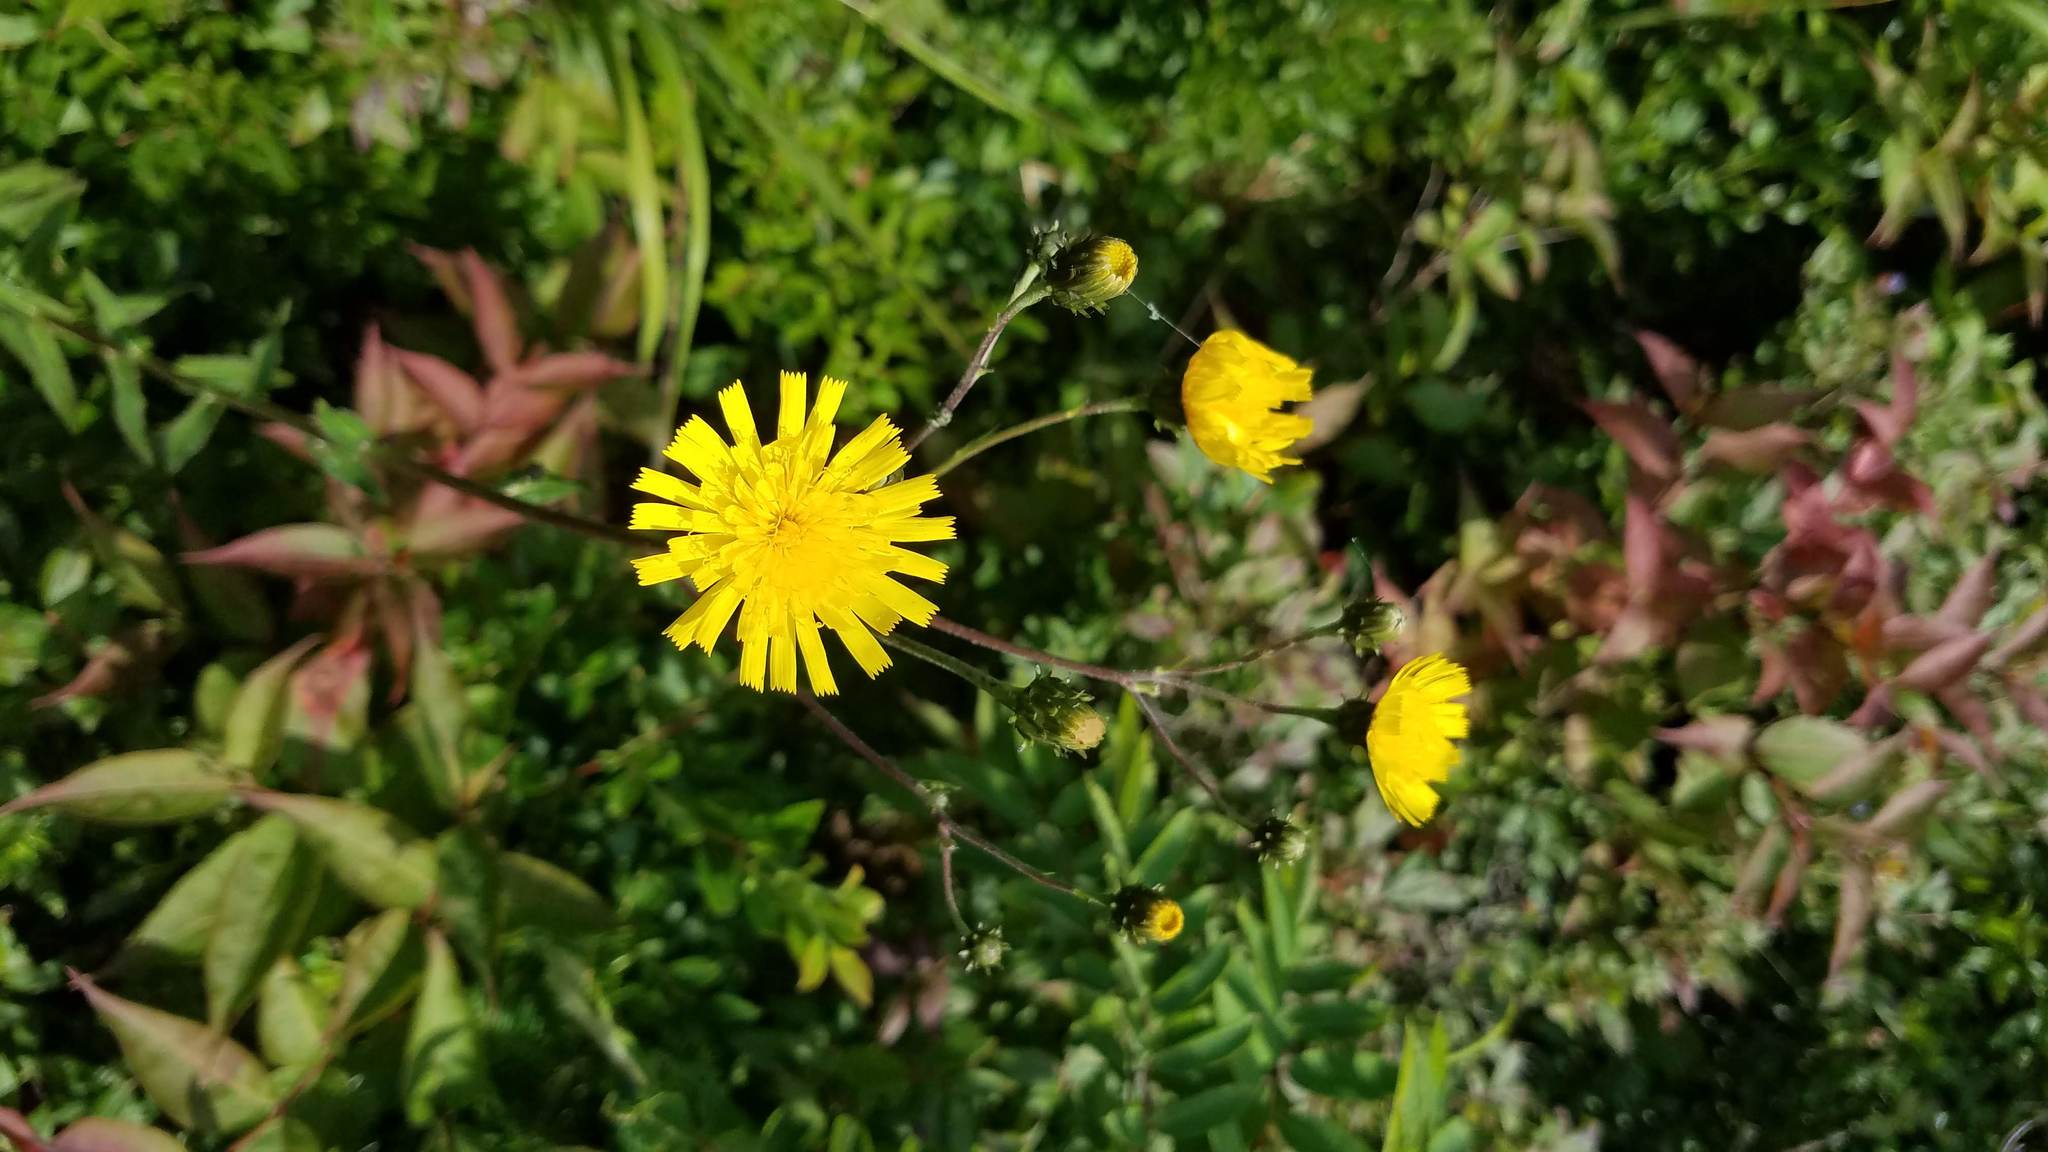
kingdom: Plantae
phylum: Tracheophyta
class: Magnoliopsida
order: Asterales
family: Asteraceae
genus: Hieracium
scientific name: Hieracium umbellatum
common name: Northern hawkweed
